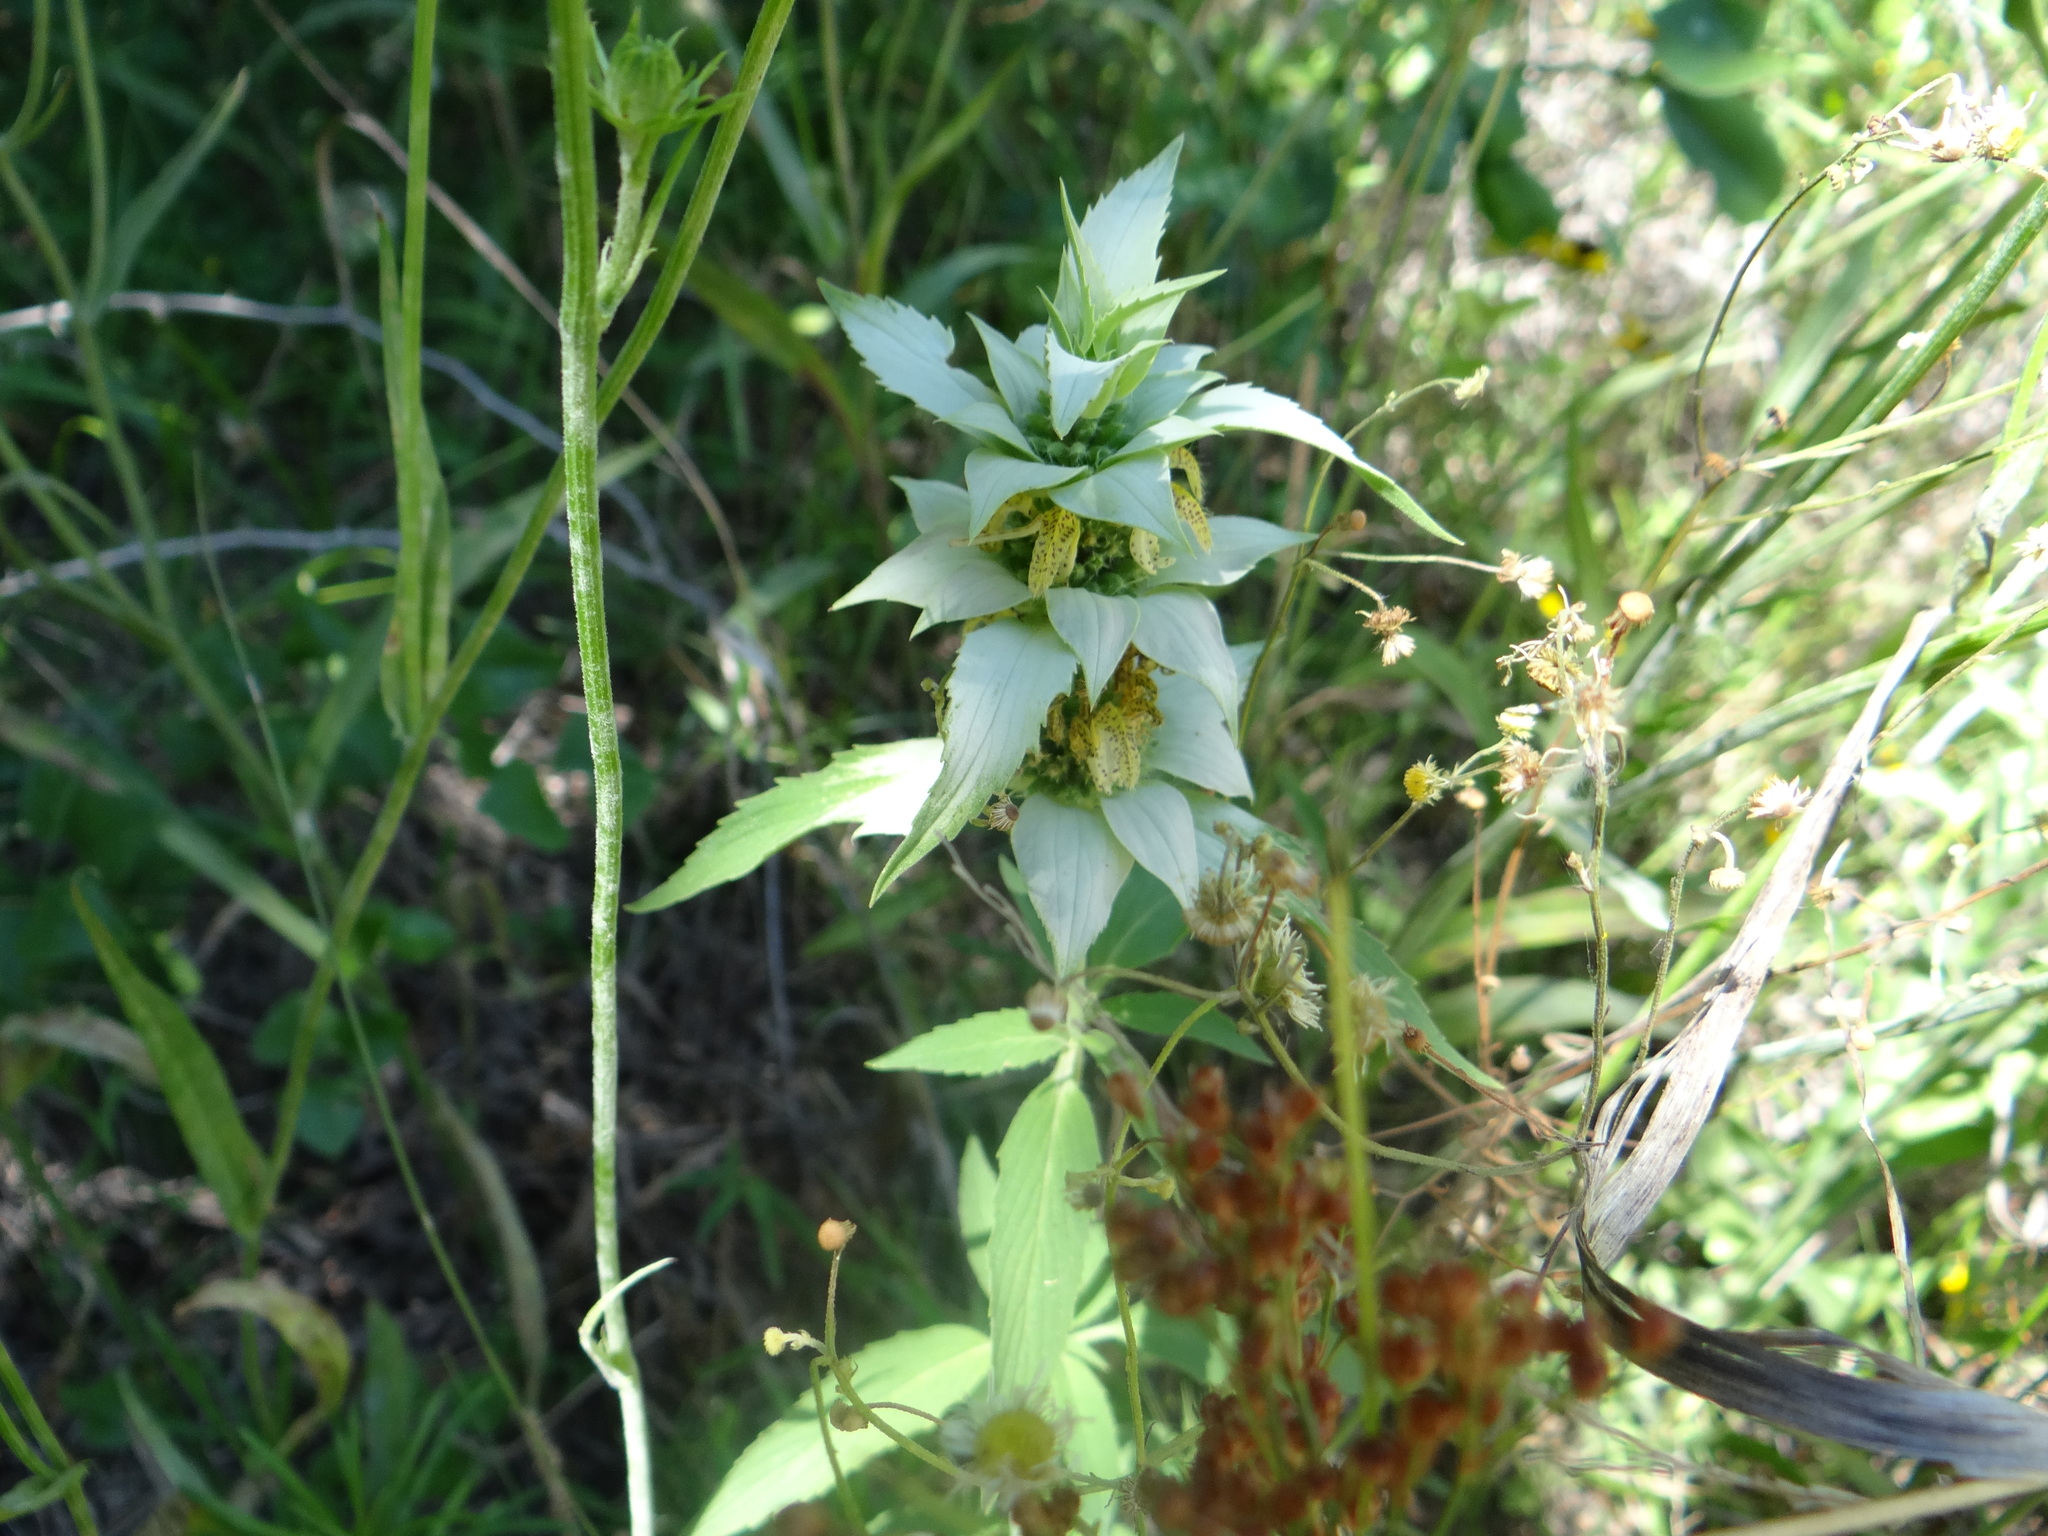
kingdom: Plantae
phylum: Tracheophyta
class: Magnoliopsida
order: Lamiales
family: Lamiaceae
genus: Monarda
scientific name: Monarda punctata
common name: Dotted monarda
